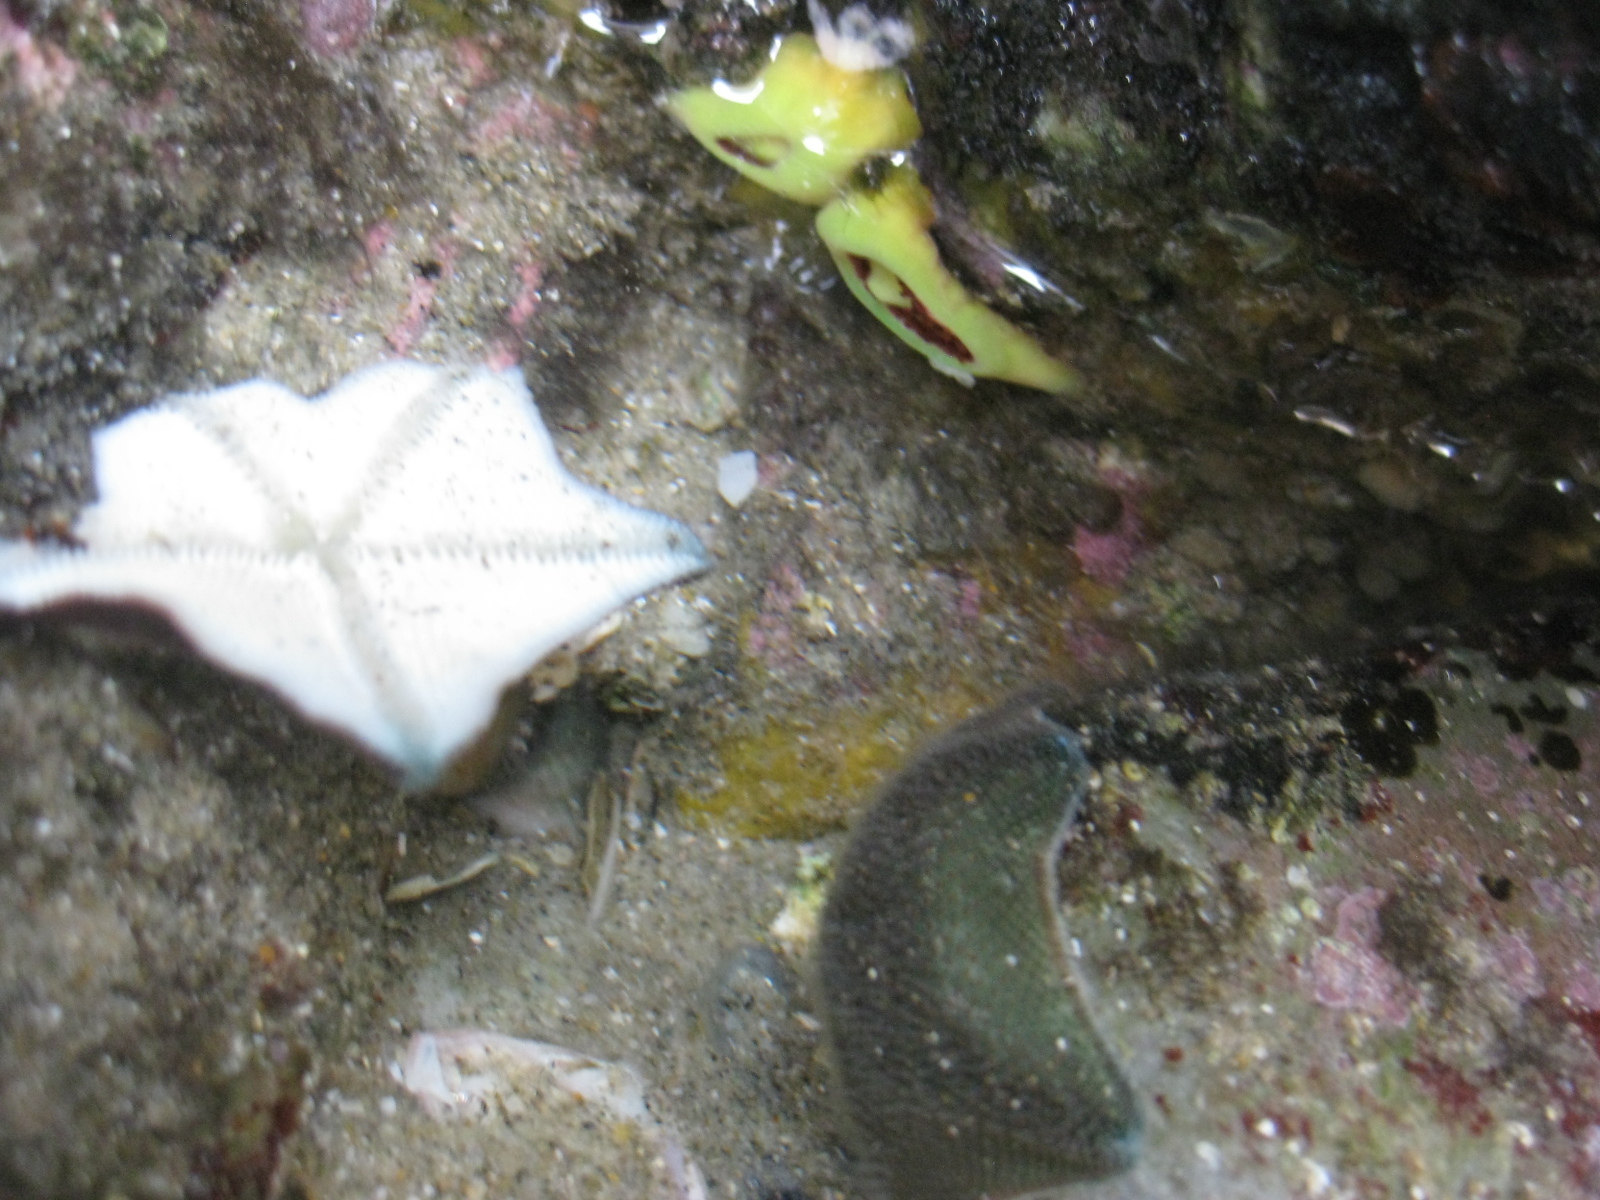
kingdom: Animalia
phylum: Cnidaria
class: Anthozoa
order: Corallimorpharia
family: Corallimorphidae
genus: Corynactis
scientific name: Corynactis australis
